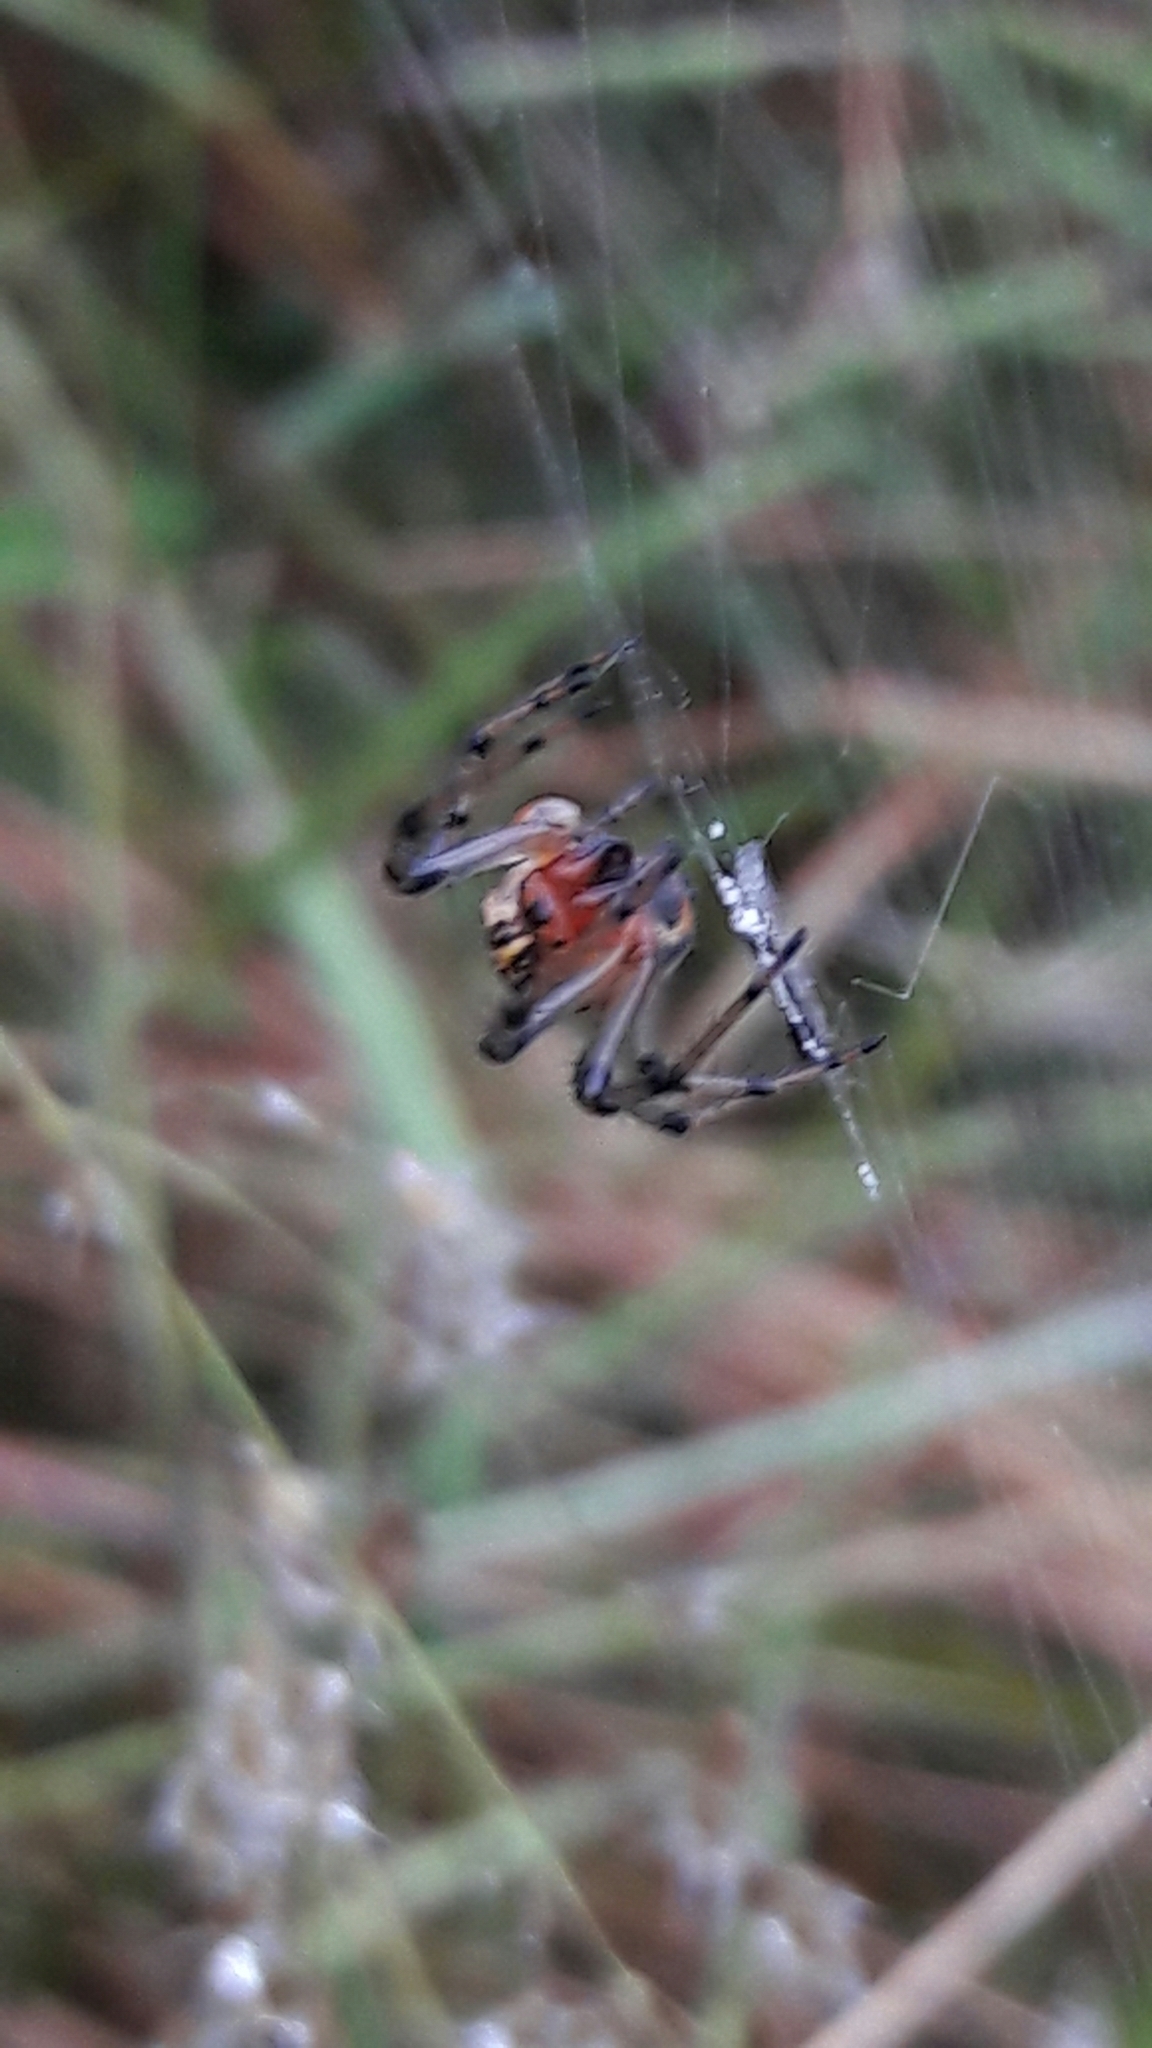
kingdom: Animalia
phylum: Arthropoda
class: Arachnida
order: Araneae
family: Araneidae
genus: Alpaida
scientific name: Alpaida veniliae
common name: Orb weavers
